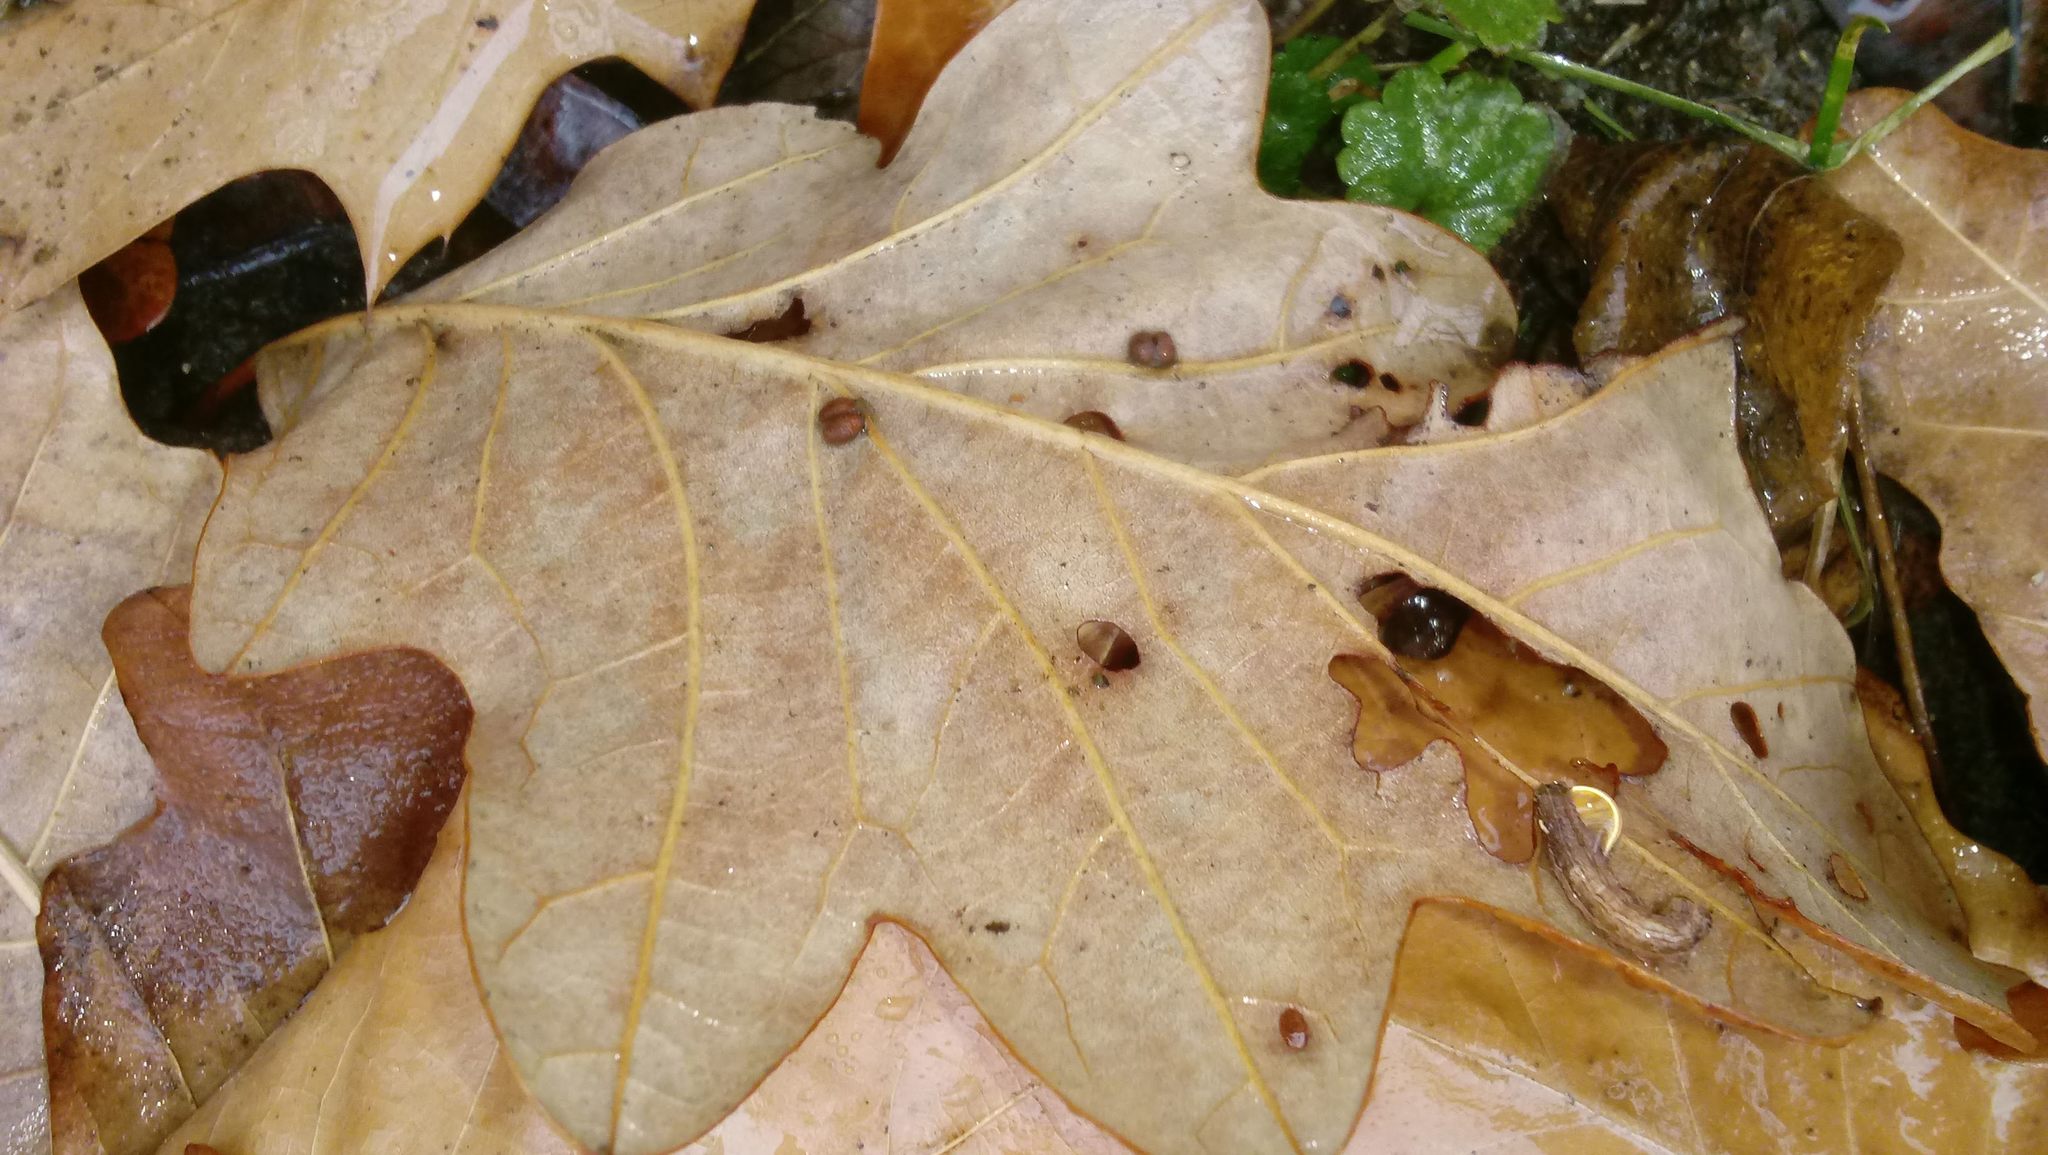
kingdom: Animalia
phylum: Arthropoda
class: Insecta
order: Hymenoptera
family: Cynipidae
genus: Andricus
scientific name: Andricus Druon ignotum
